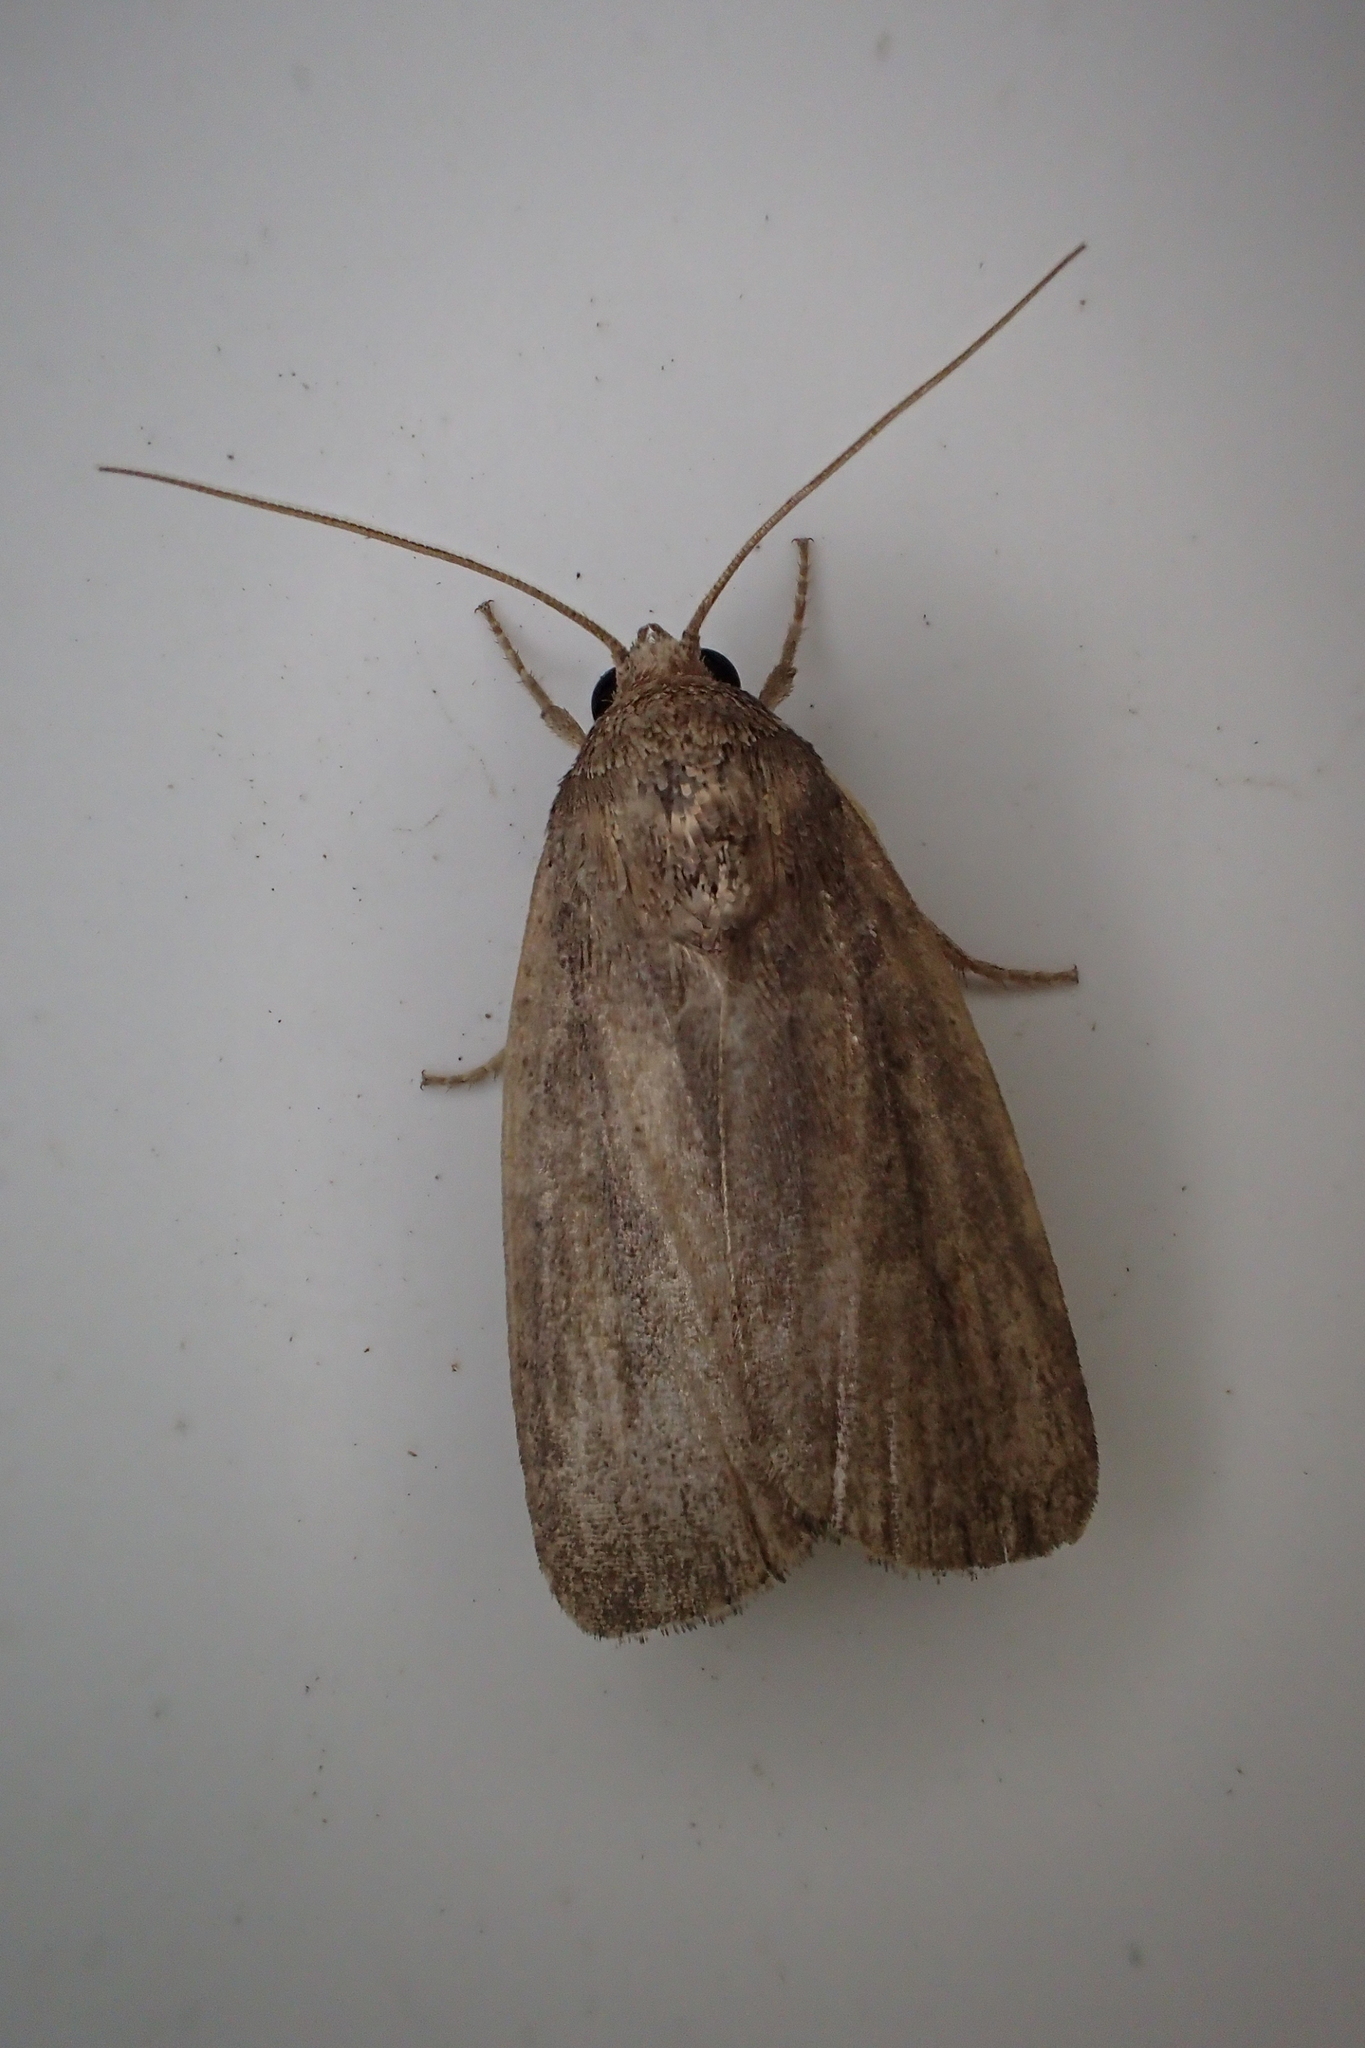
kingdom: Animalia
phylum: Arthropoda
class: Insecta
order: Lepidoptera
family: Noctuidae
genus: Athetis
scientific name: Athetis hospes
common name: Porter's rustic
